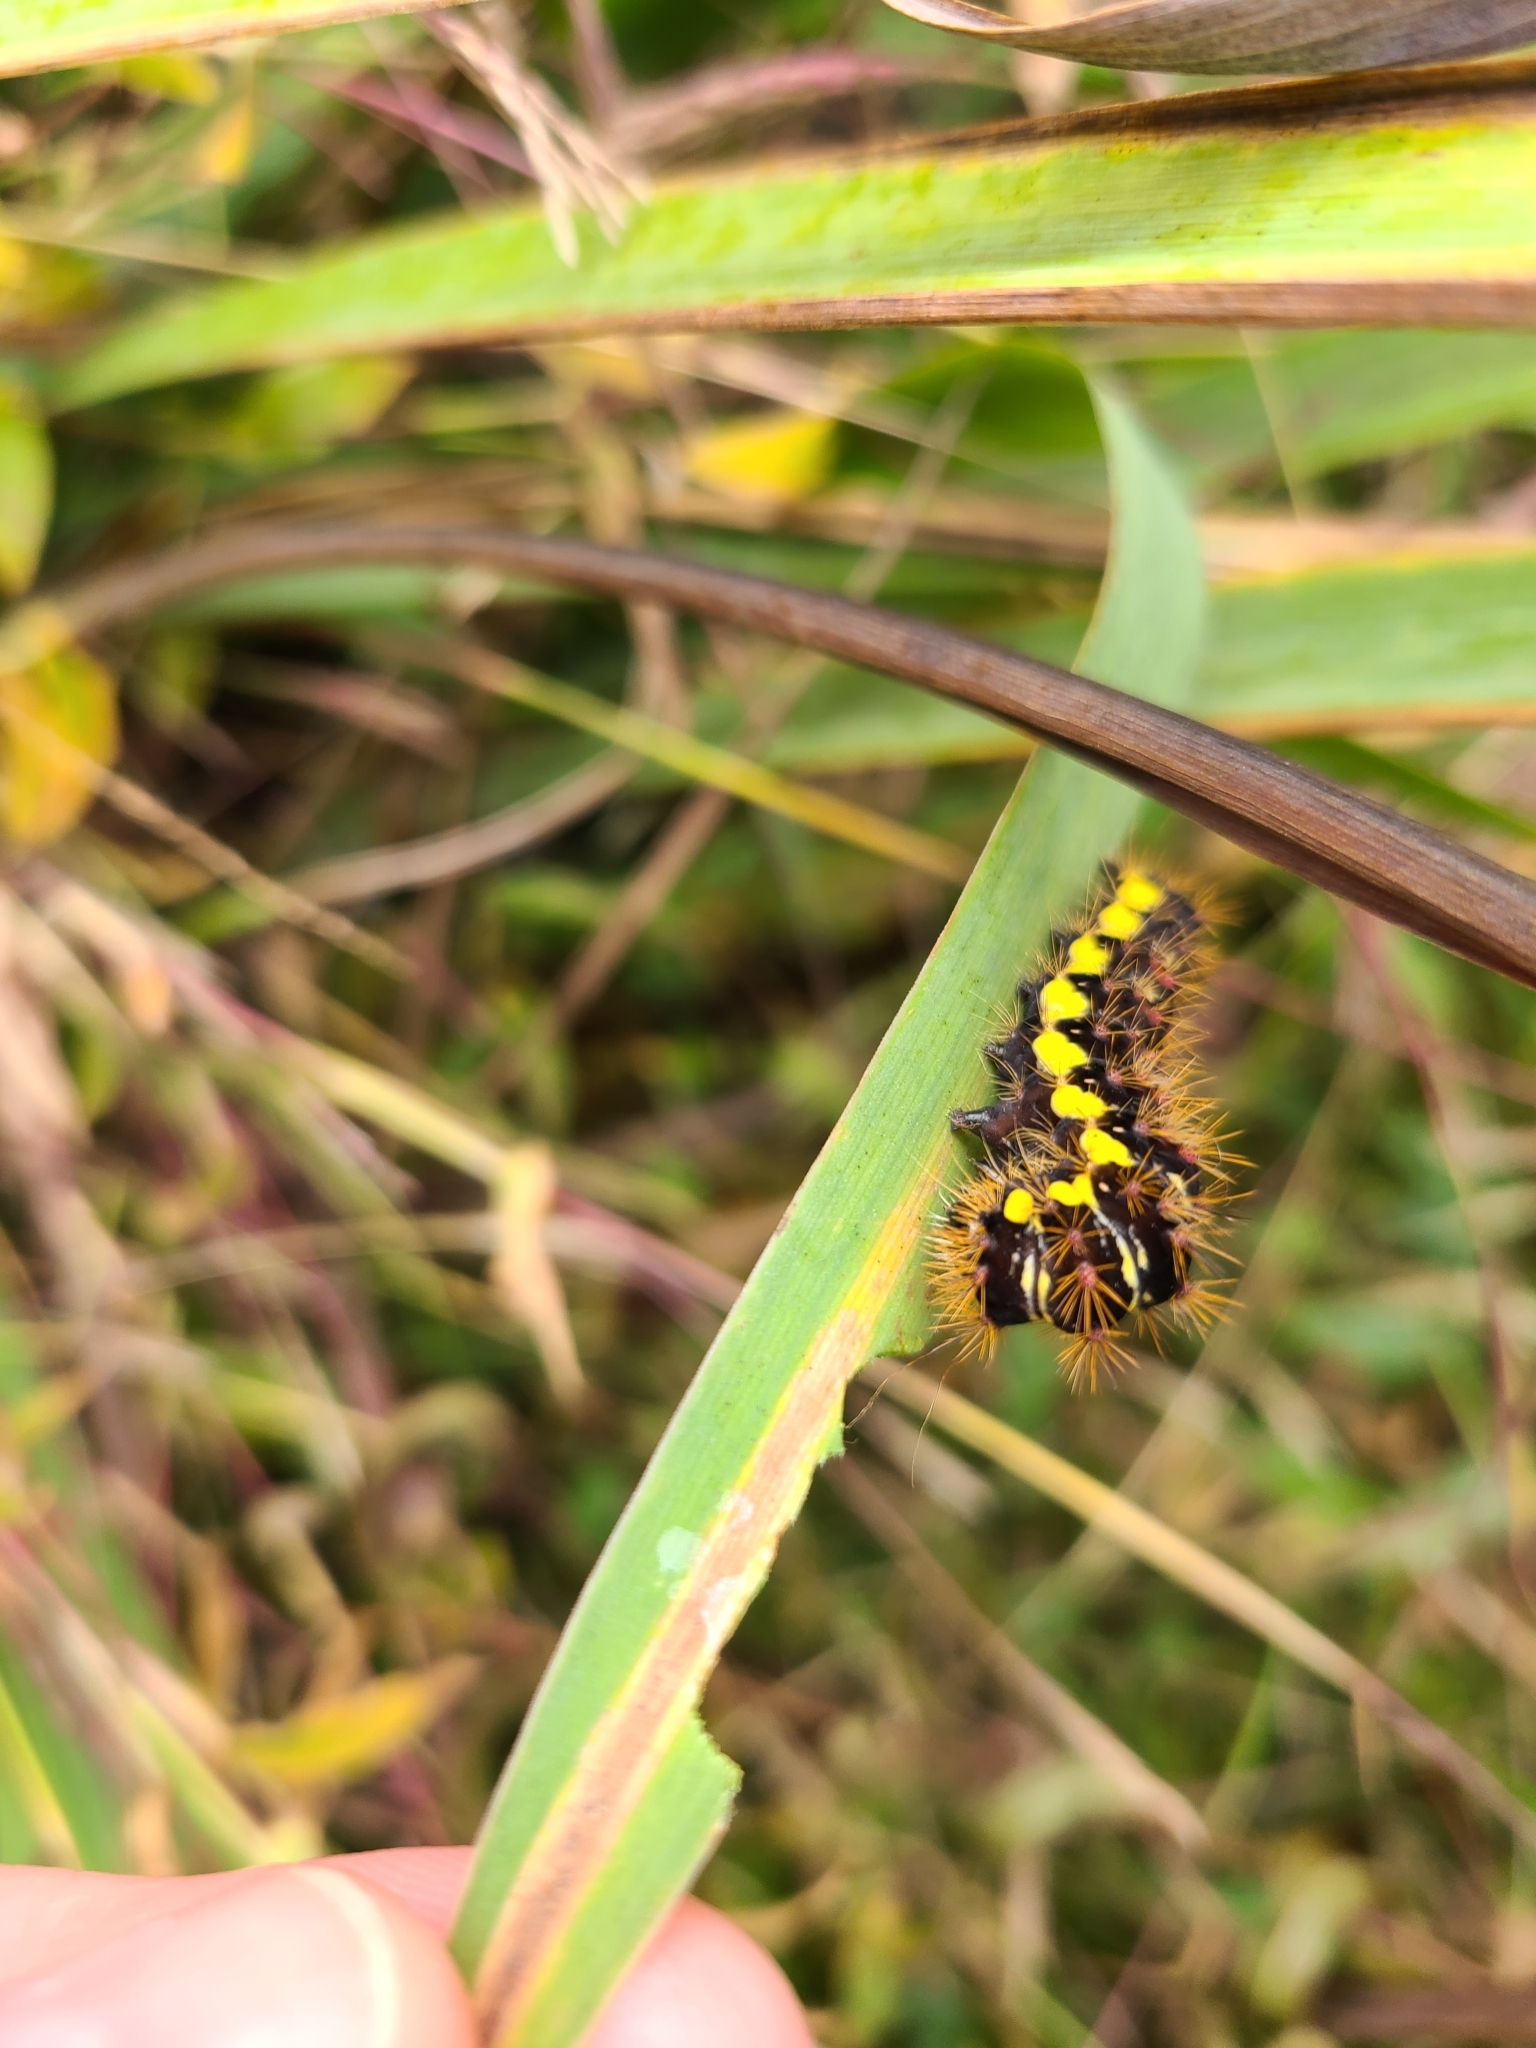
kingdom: Animalia
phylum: Arthropoda
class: Insecta
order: Lepidoptera
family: Noctuidae
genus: Acronicta
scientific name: Acronicta oblinita
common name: Smeared dagger
